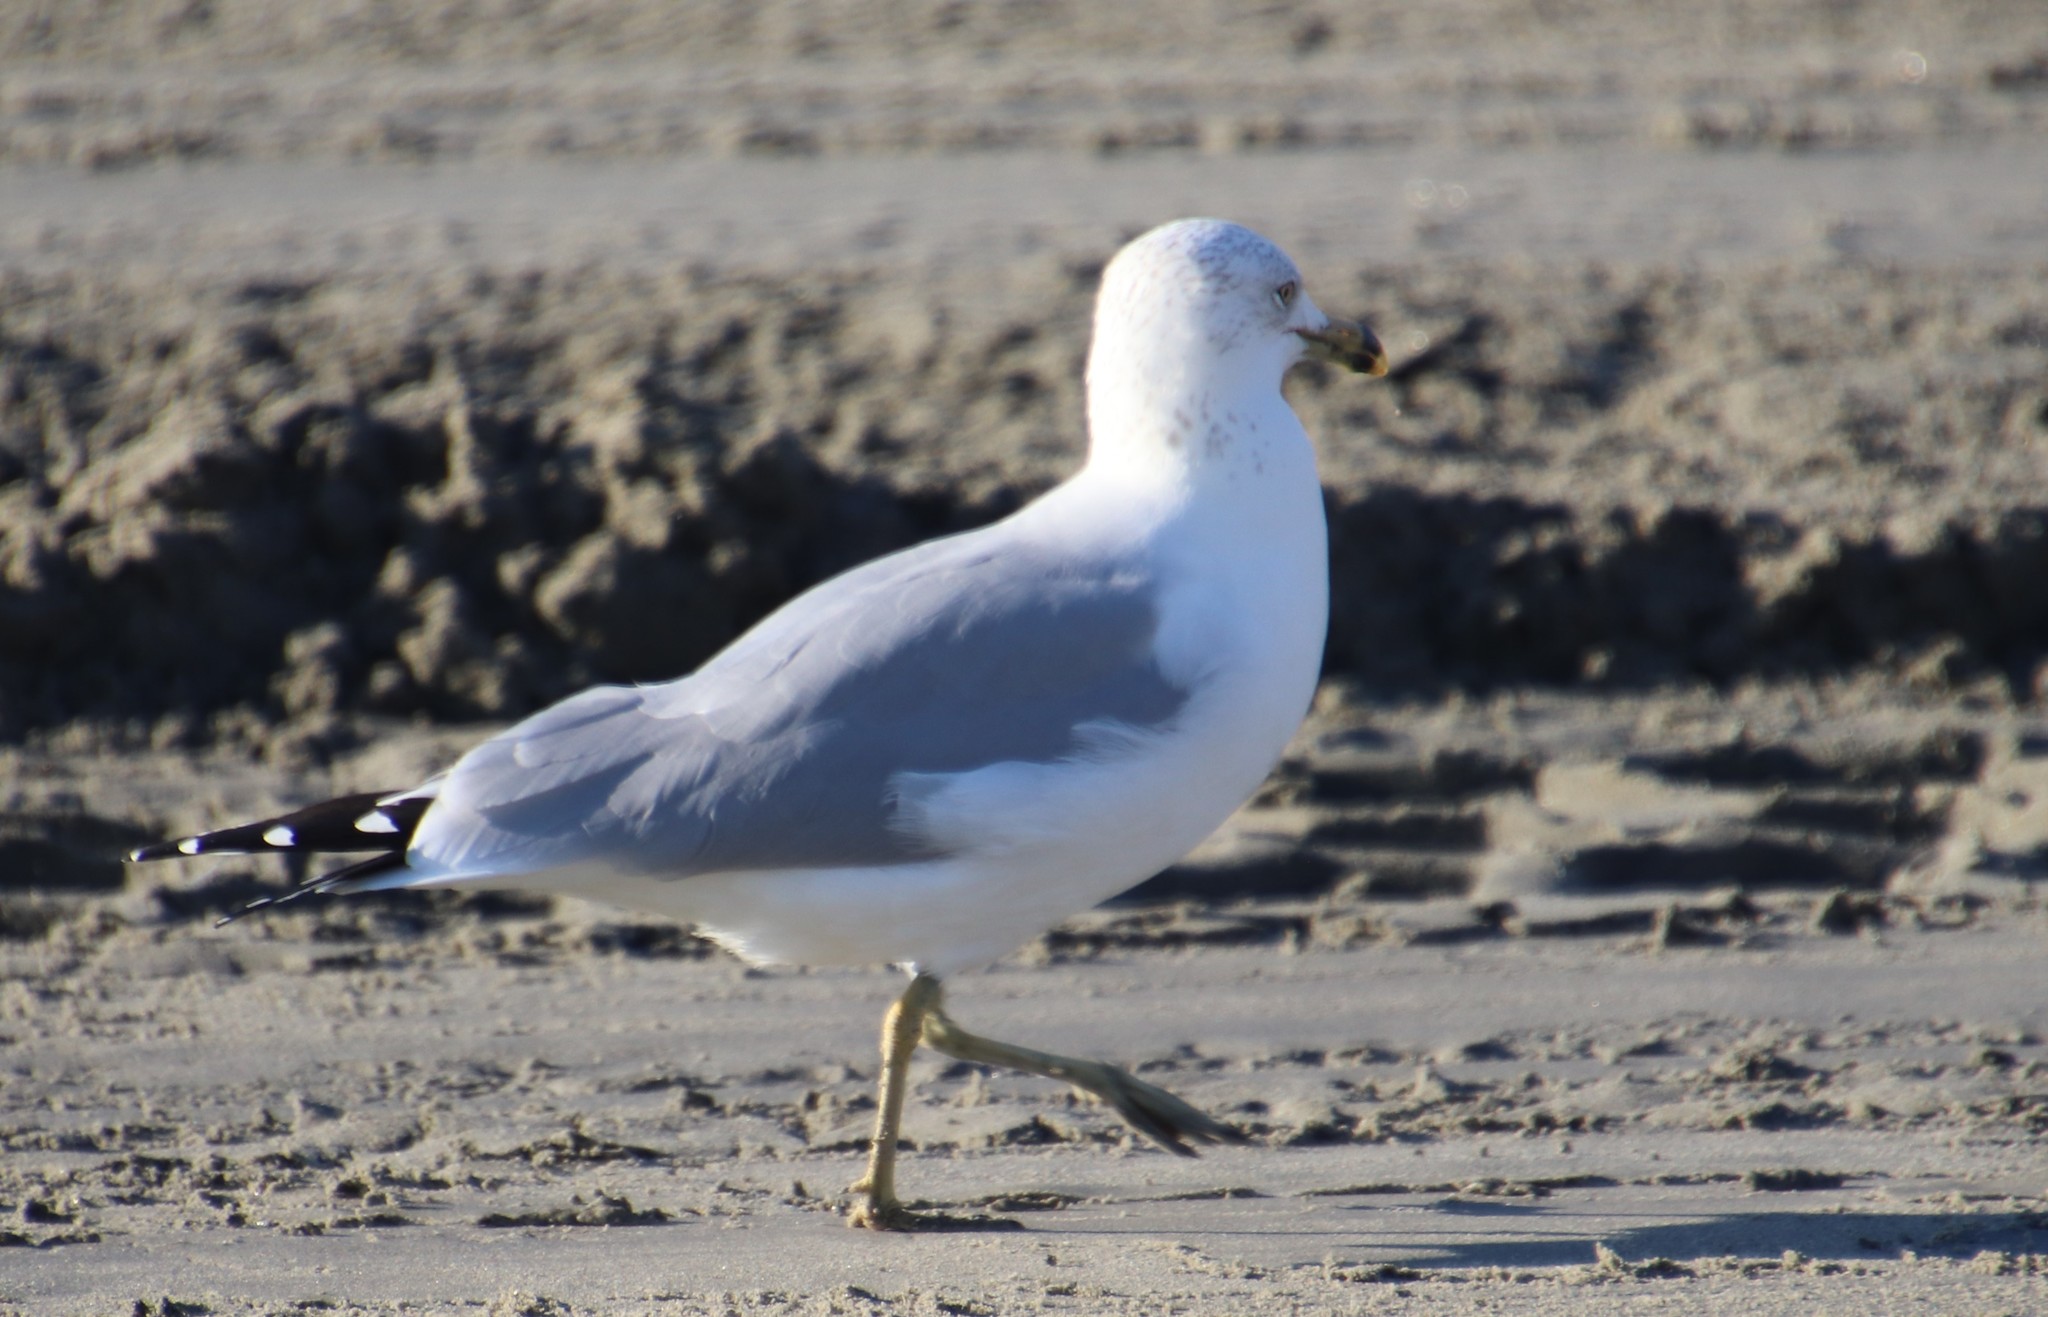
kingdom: Animalia
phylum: Chordata
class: Aves
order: Charadriiformes
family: Laridae
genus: Larus
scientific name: Larus delawarensis
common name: Ring-billed gull
